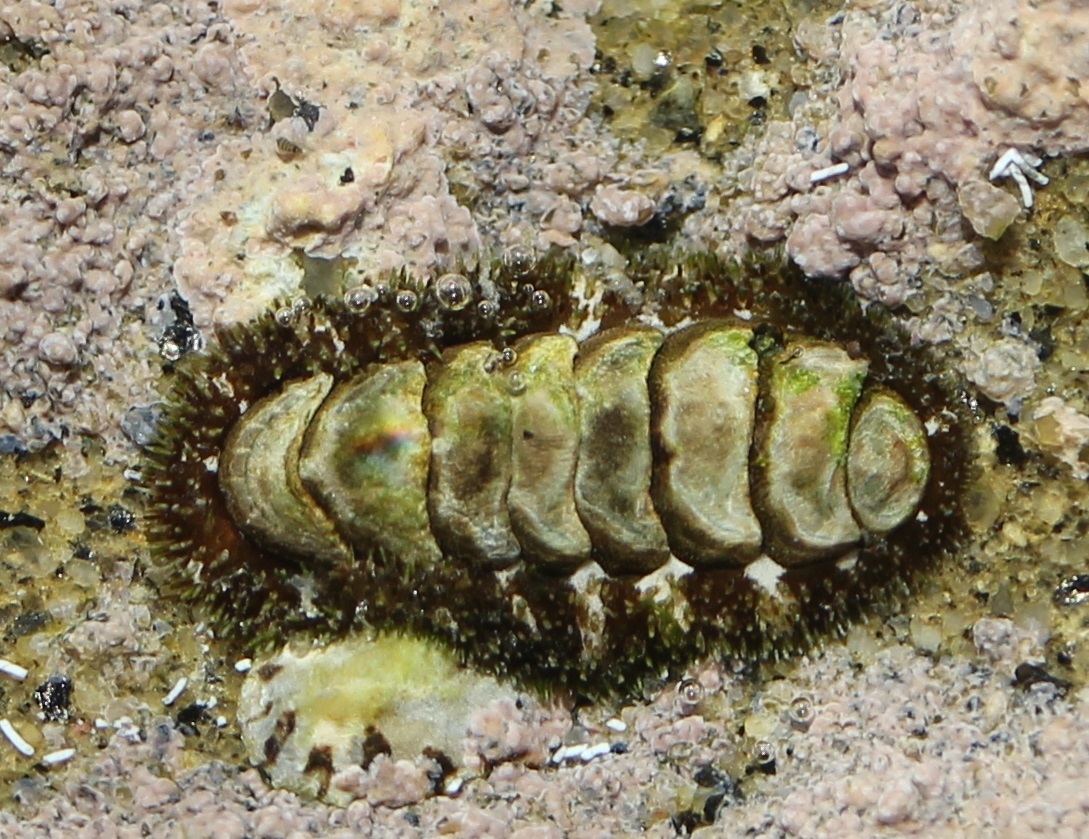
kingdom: Animalia
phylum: Mollusca
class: Polyplacophora
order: Chitonida
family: Tonicellidae
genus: Nuttallina
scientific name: Nuttallina californica
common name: California nuttall chiton
